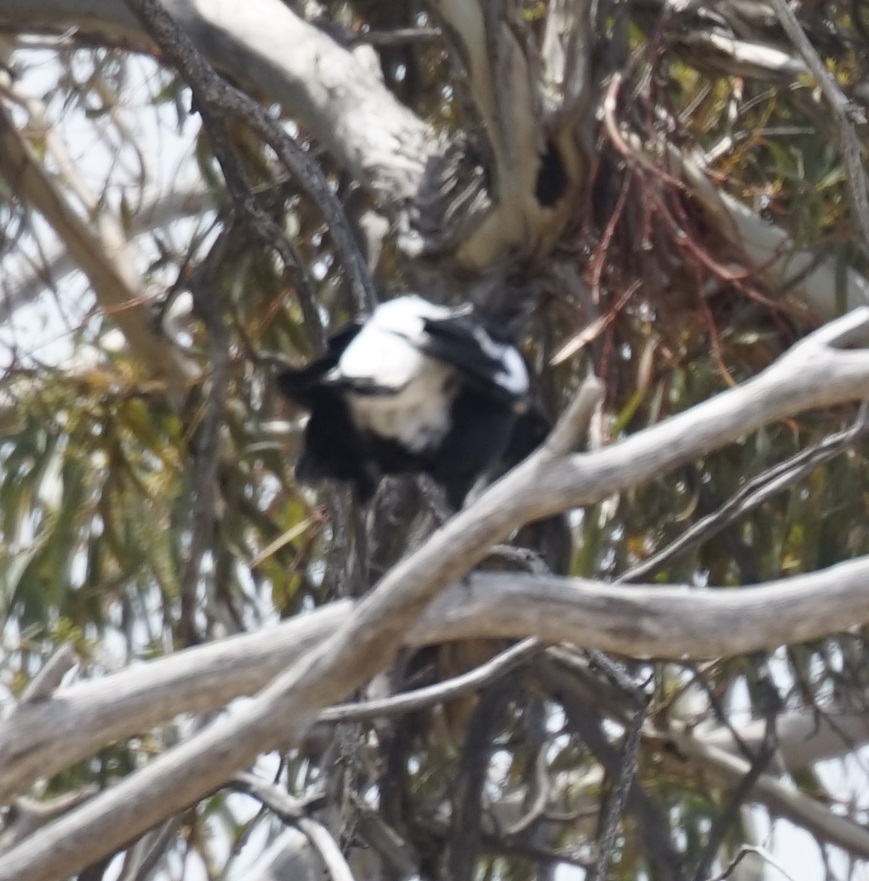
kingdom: Animalia
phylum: Chordata
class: Aves
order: Passeriformes
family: Cracticidae
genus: Gymnorhina
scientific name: Gymnorhina tibicen
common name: Australian magpie
